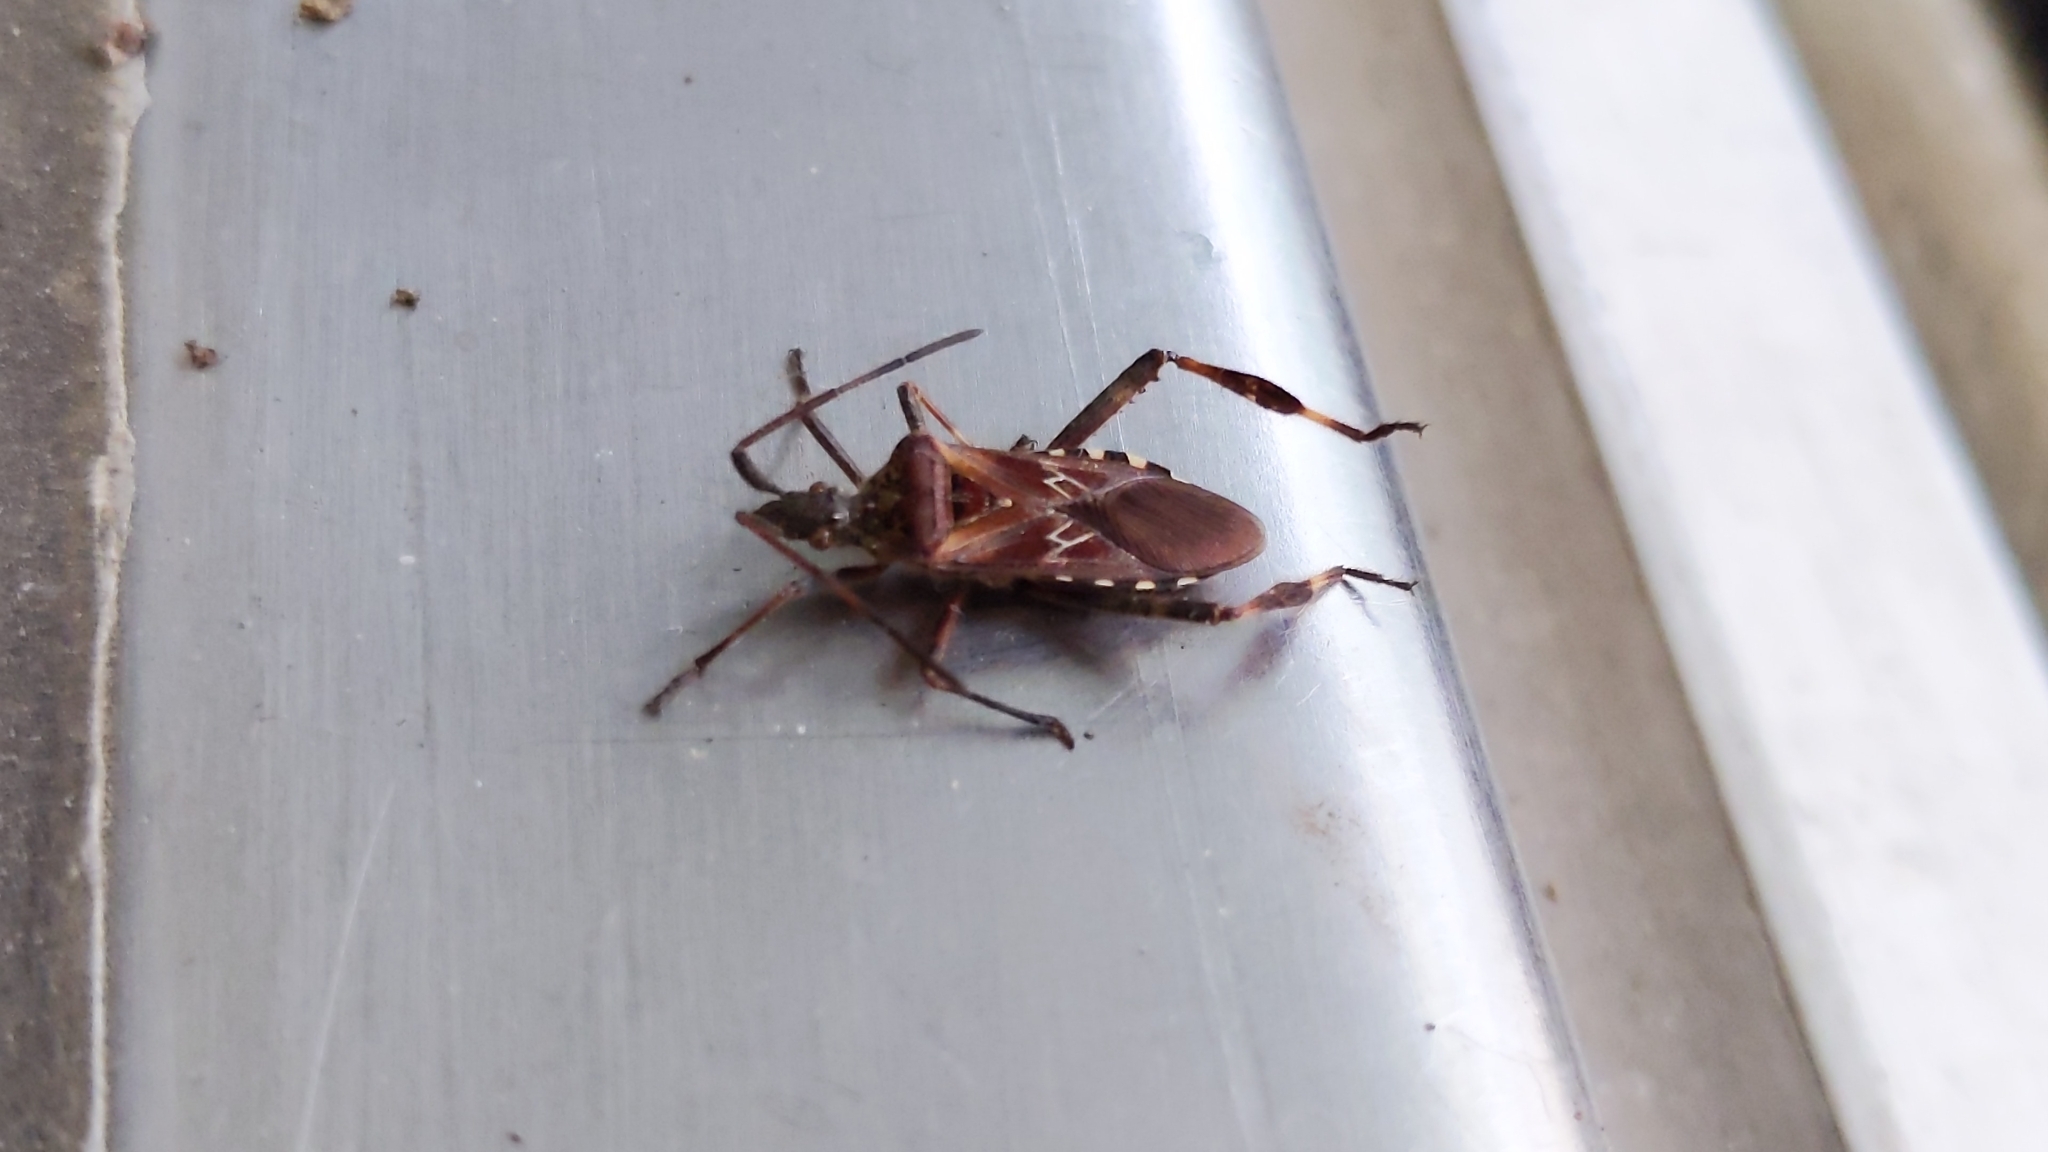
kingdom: Animalia
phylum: Arthropoda
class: Insecta
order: Hemiptera
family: Coreidae
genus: Leptoglossus
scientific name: Leptoglossus occidentalis
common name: Western conifer-seed bug
